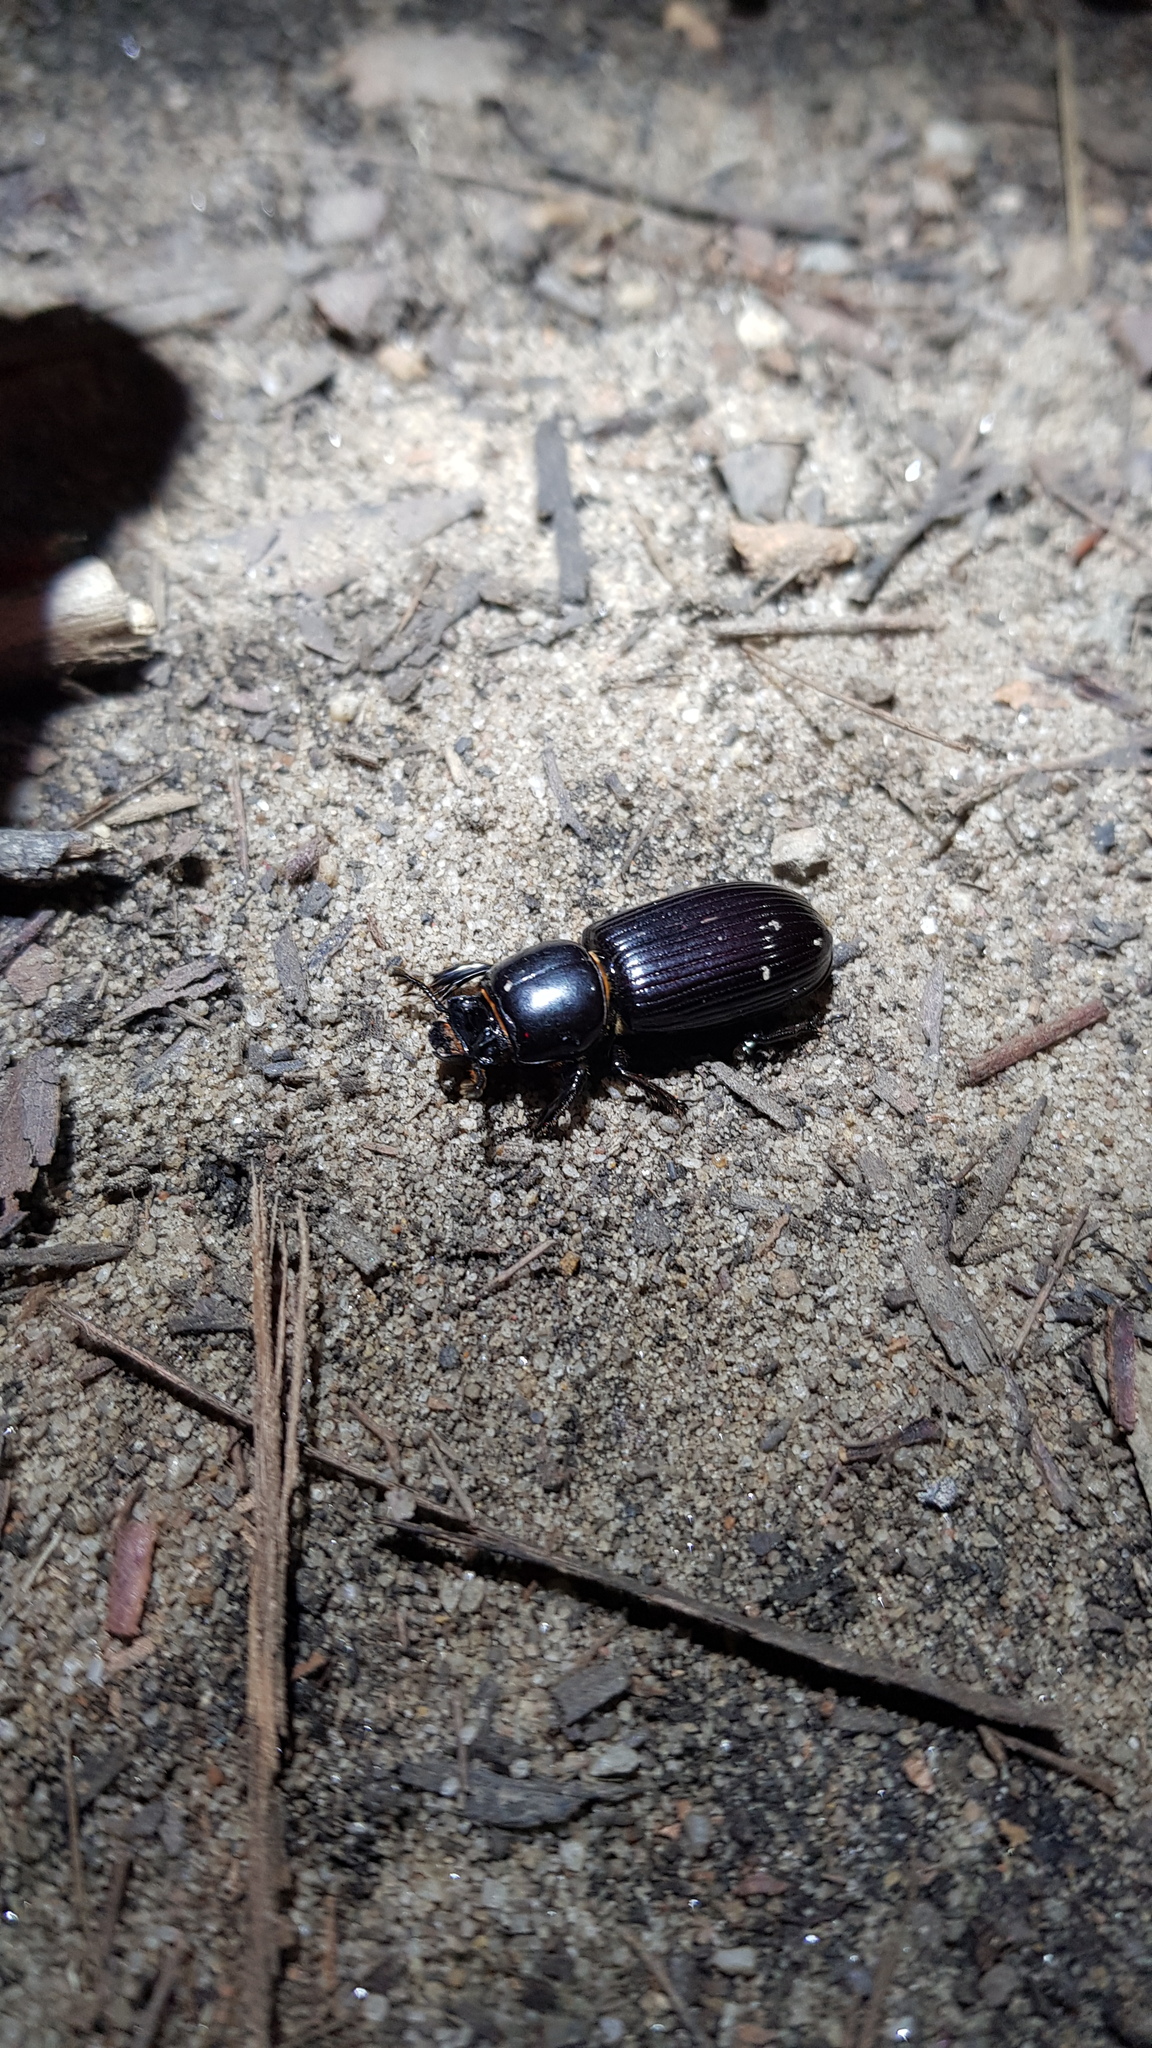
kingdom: Animalia
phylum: Arthropoda
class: Insecta
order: Coleoptera
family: Passalidae
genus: Aulacocyclus
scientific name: Aulacocyclus edentulus
